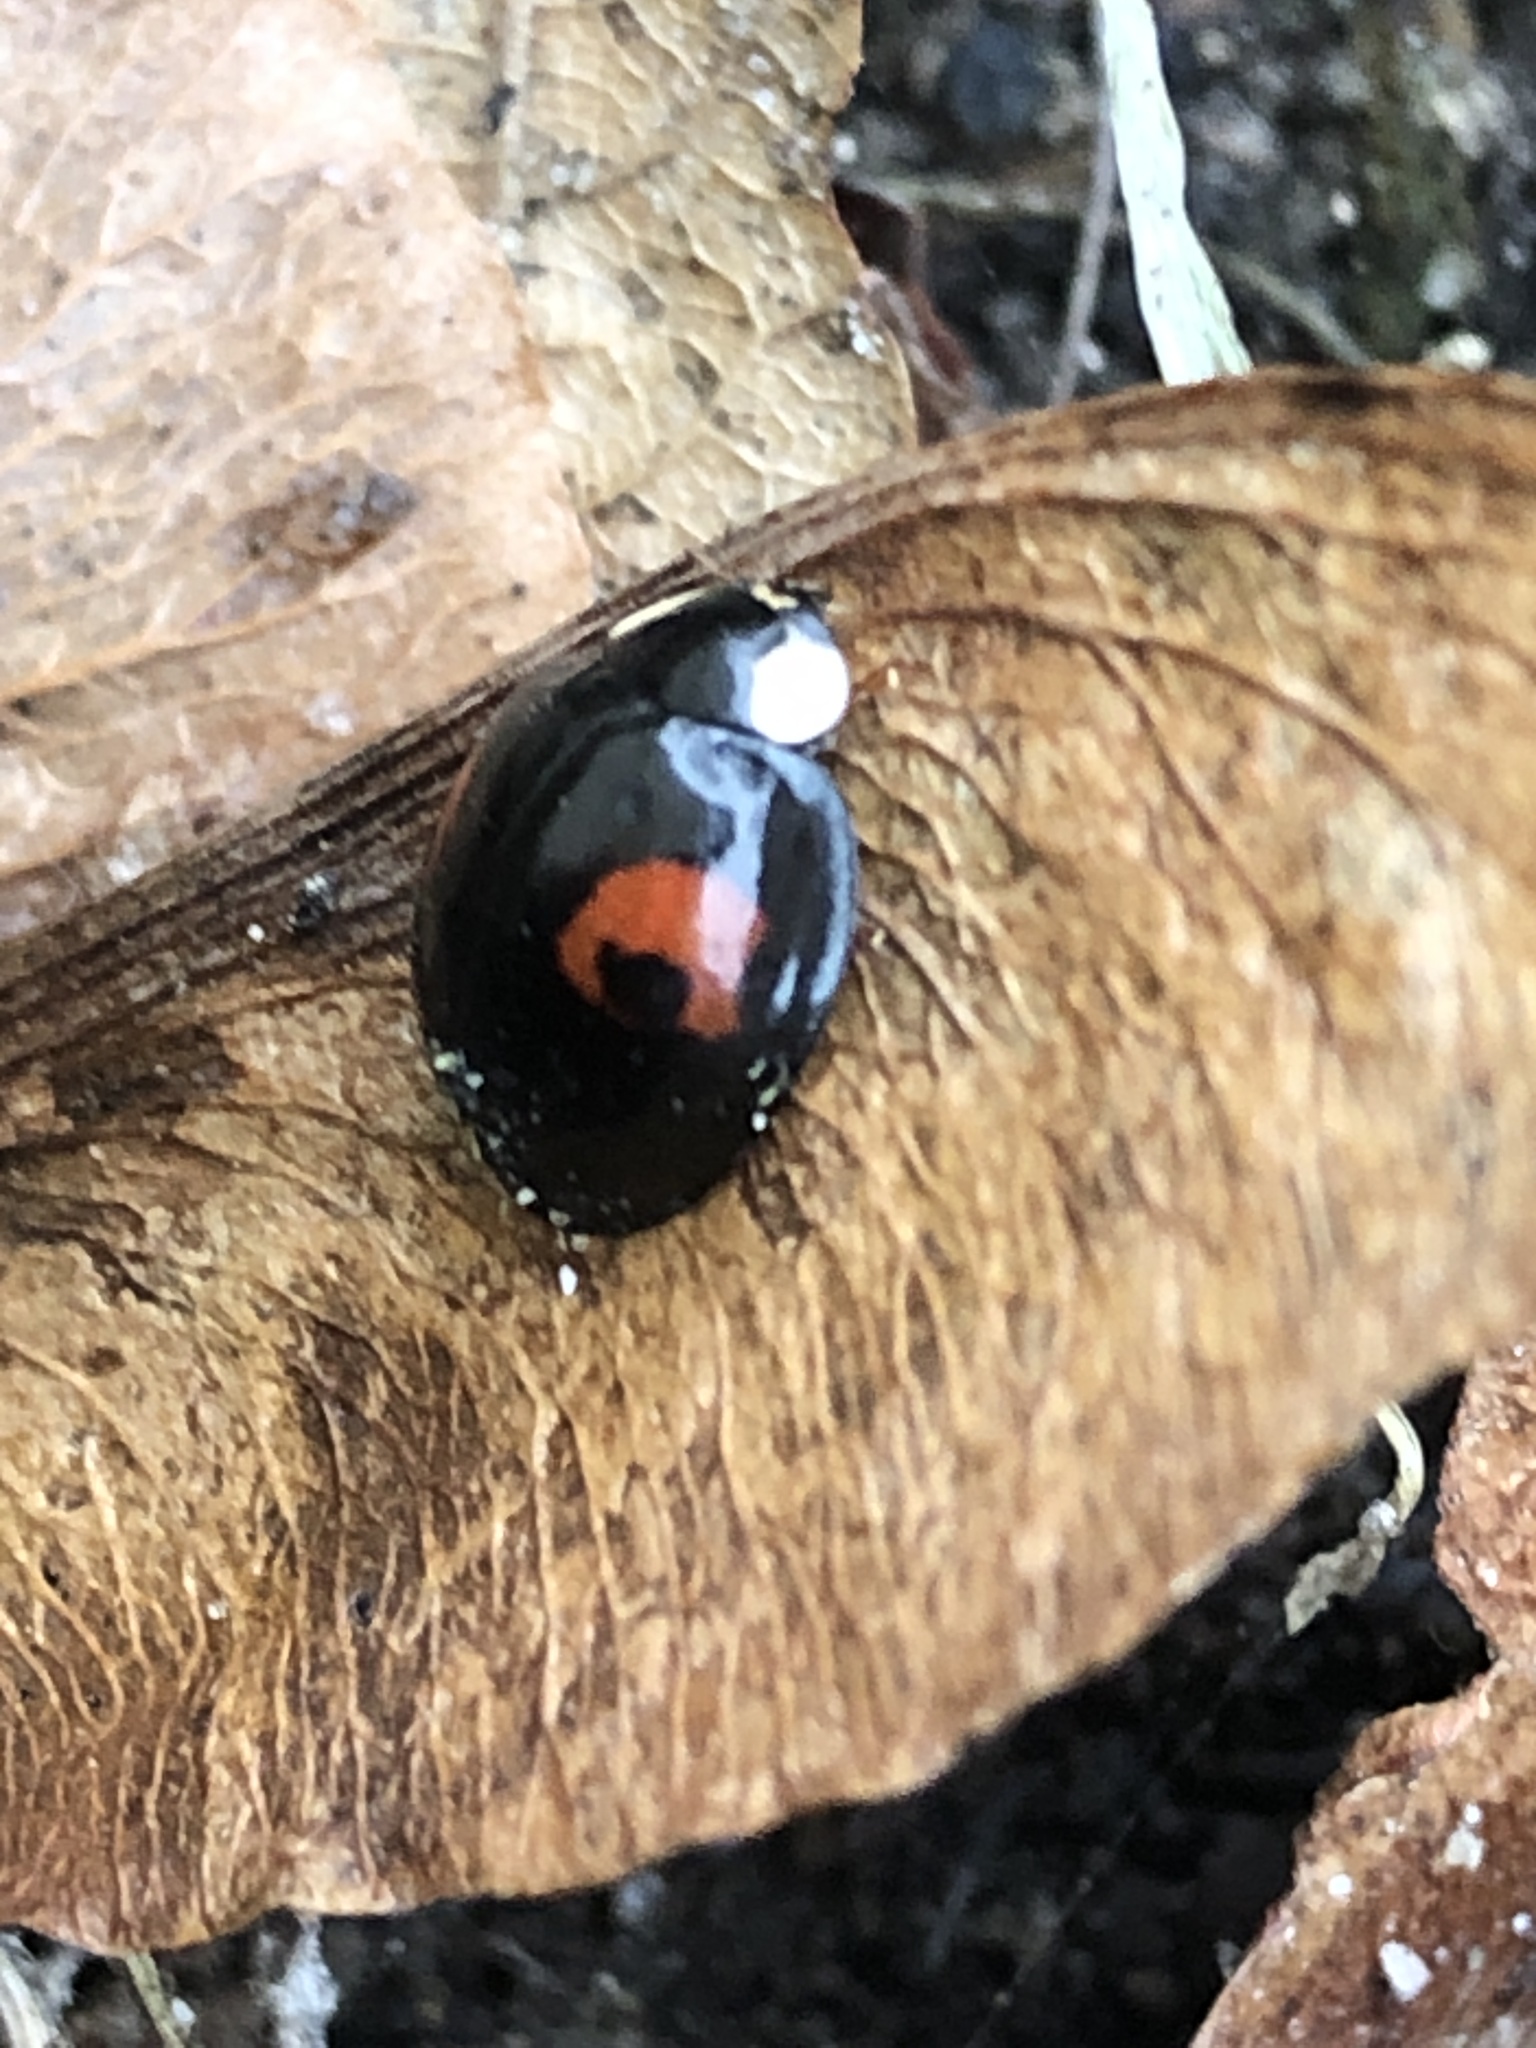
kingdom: Animalia
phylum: Arthropoda
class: Insecta
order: Coleoptera
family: Coccinellidae
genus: Harmonia
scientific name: Harmonia axyridis
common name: Harlequin ladybird
